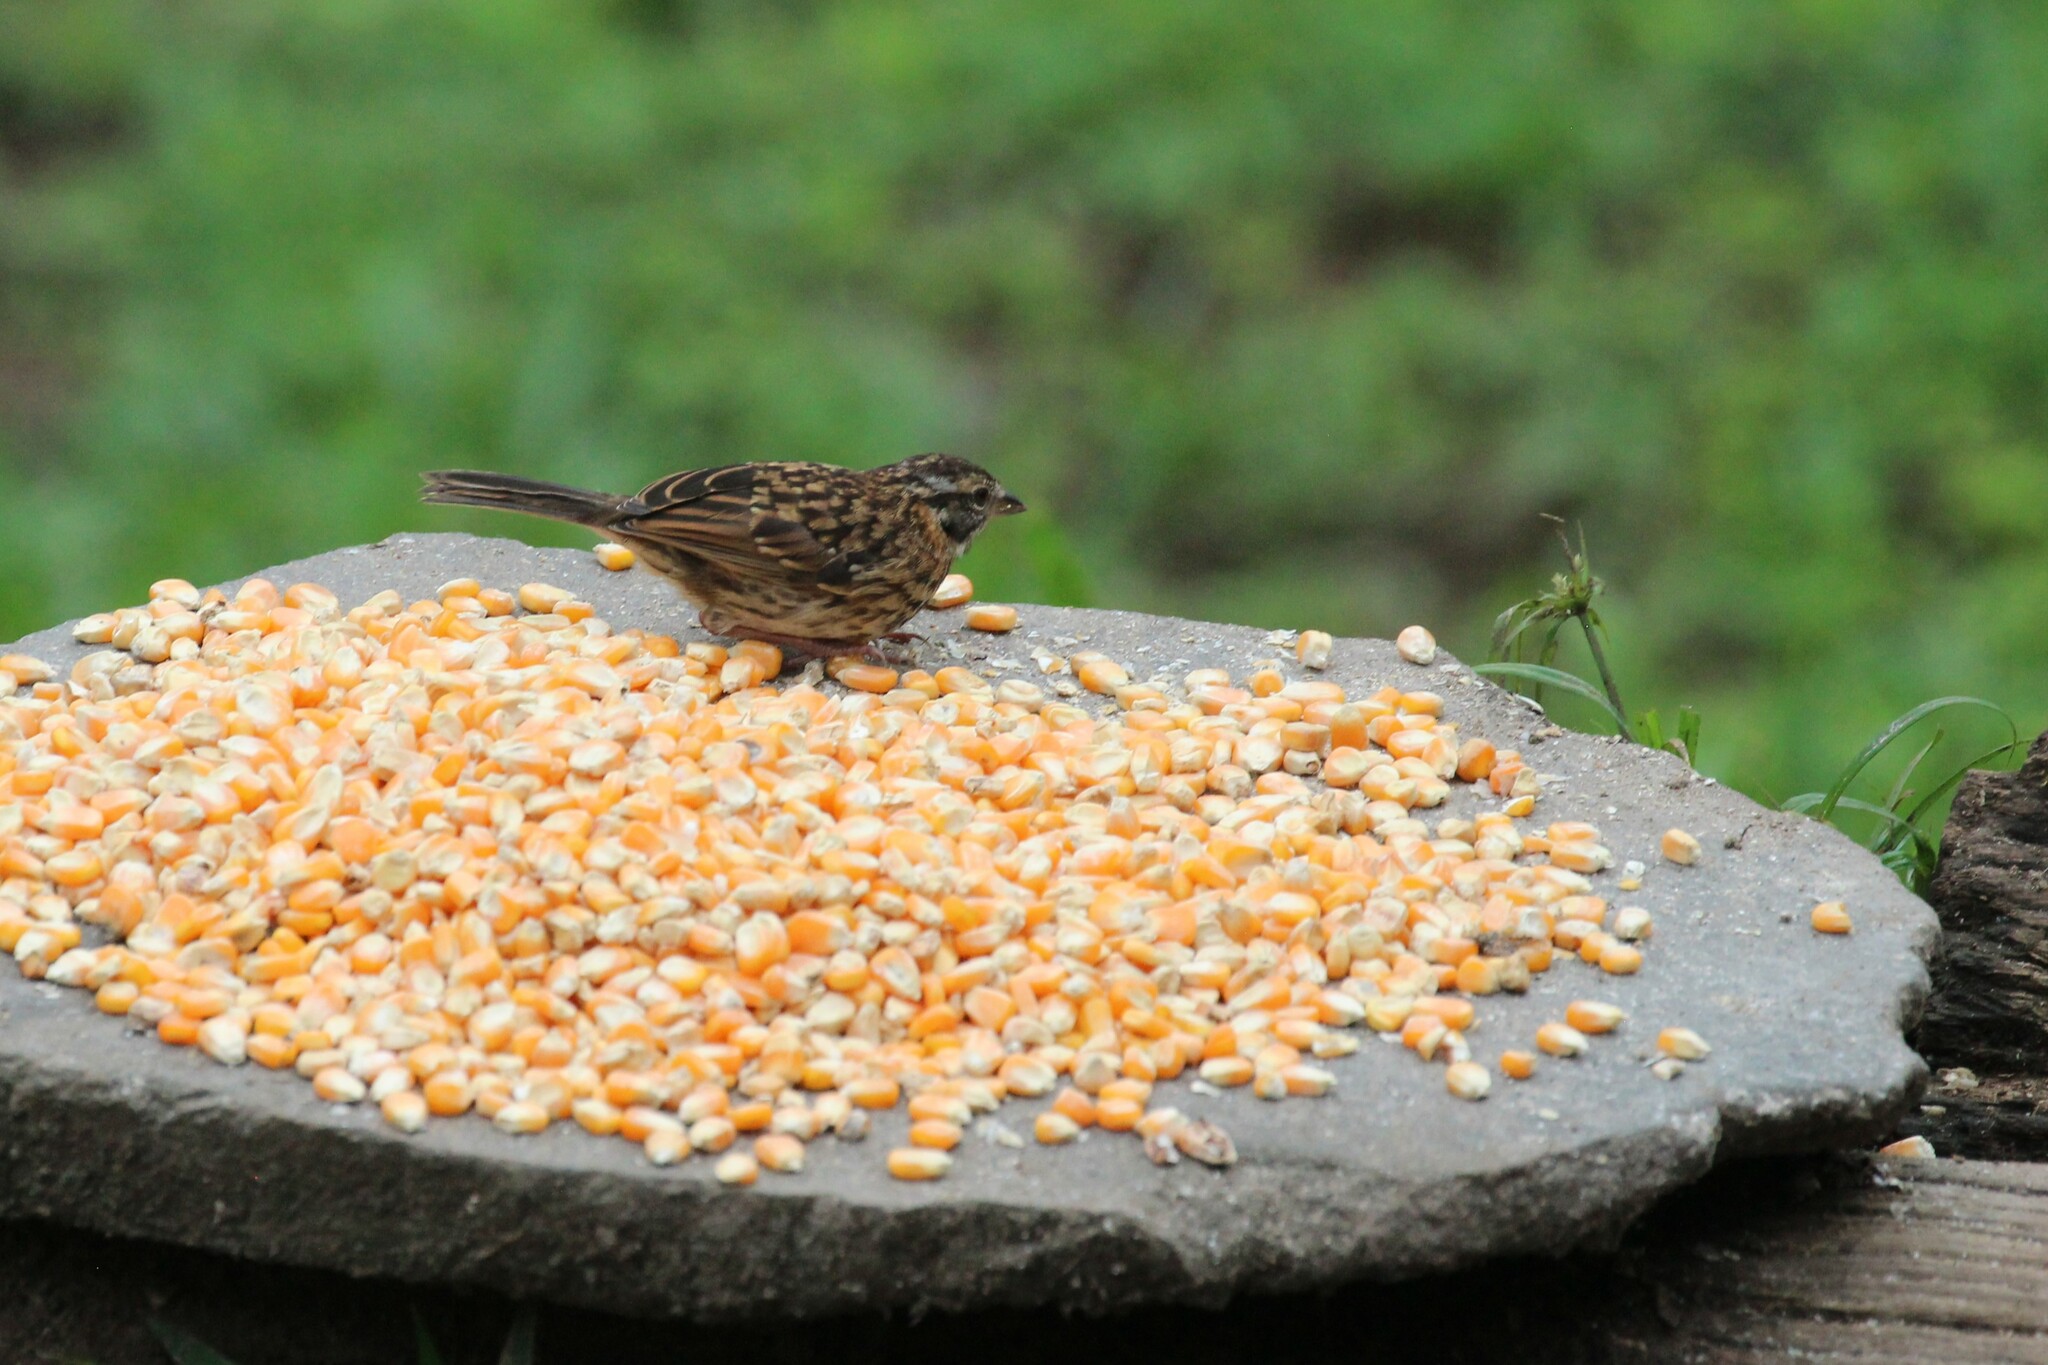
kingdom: Animalia
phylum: Chordata
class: Aves
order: Passeriformes
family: Passerellidae
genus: Zonotrichia
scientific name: Zonotrichia capensis
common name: Rufous-collared sparrow
